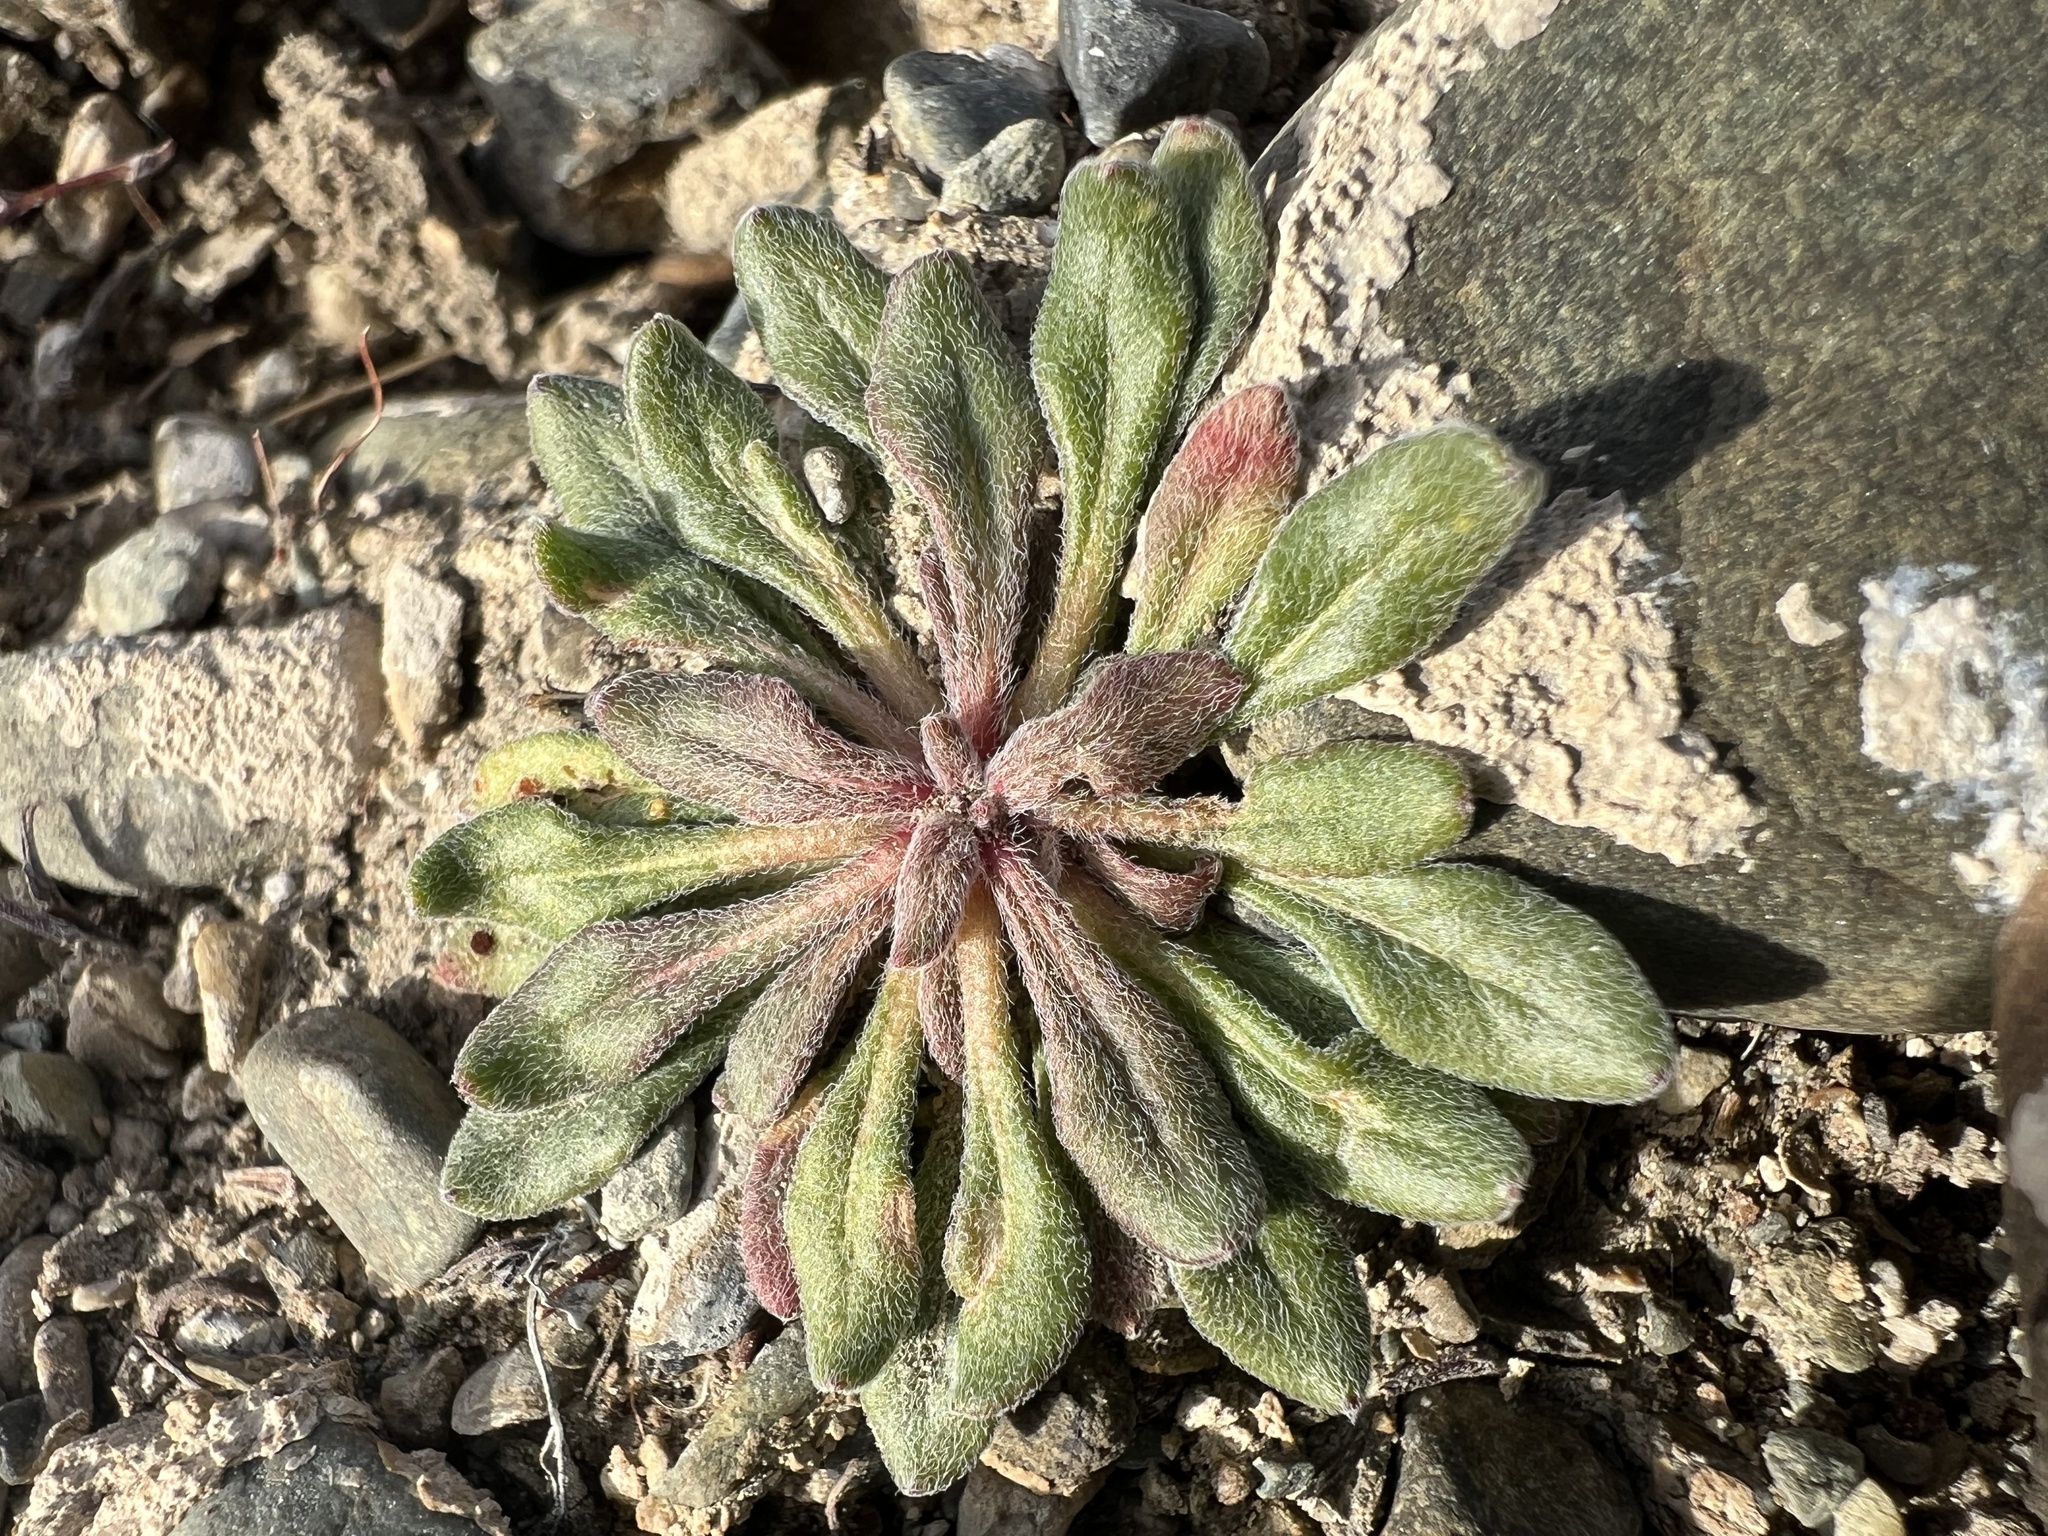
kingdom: Plantae
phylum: Tracheophyta
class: Magnoliopsida
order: Caryophyllales
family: Polygonaceae
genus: Chorizanthe
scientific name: Chorizanthe brevicornu
